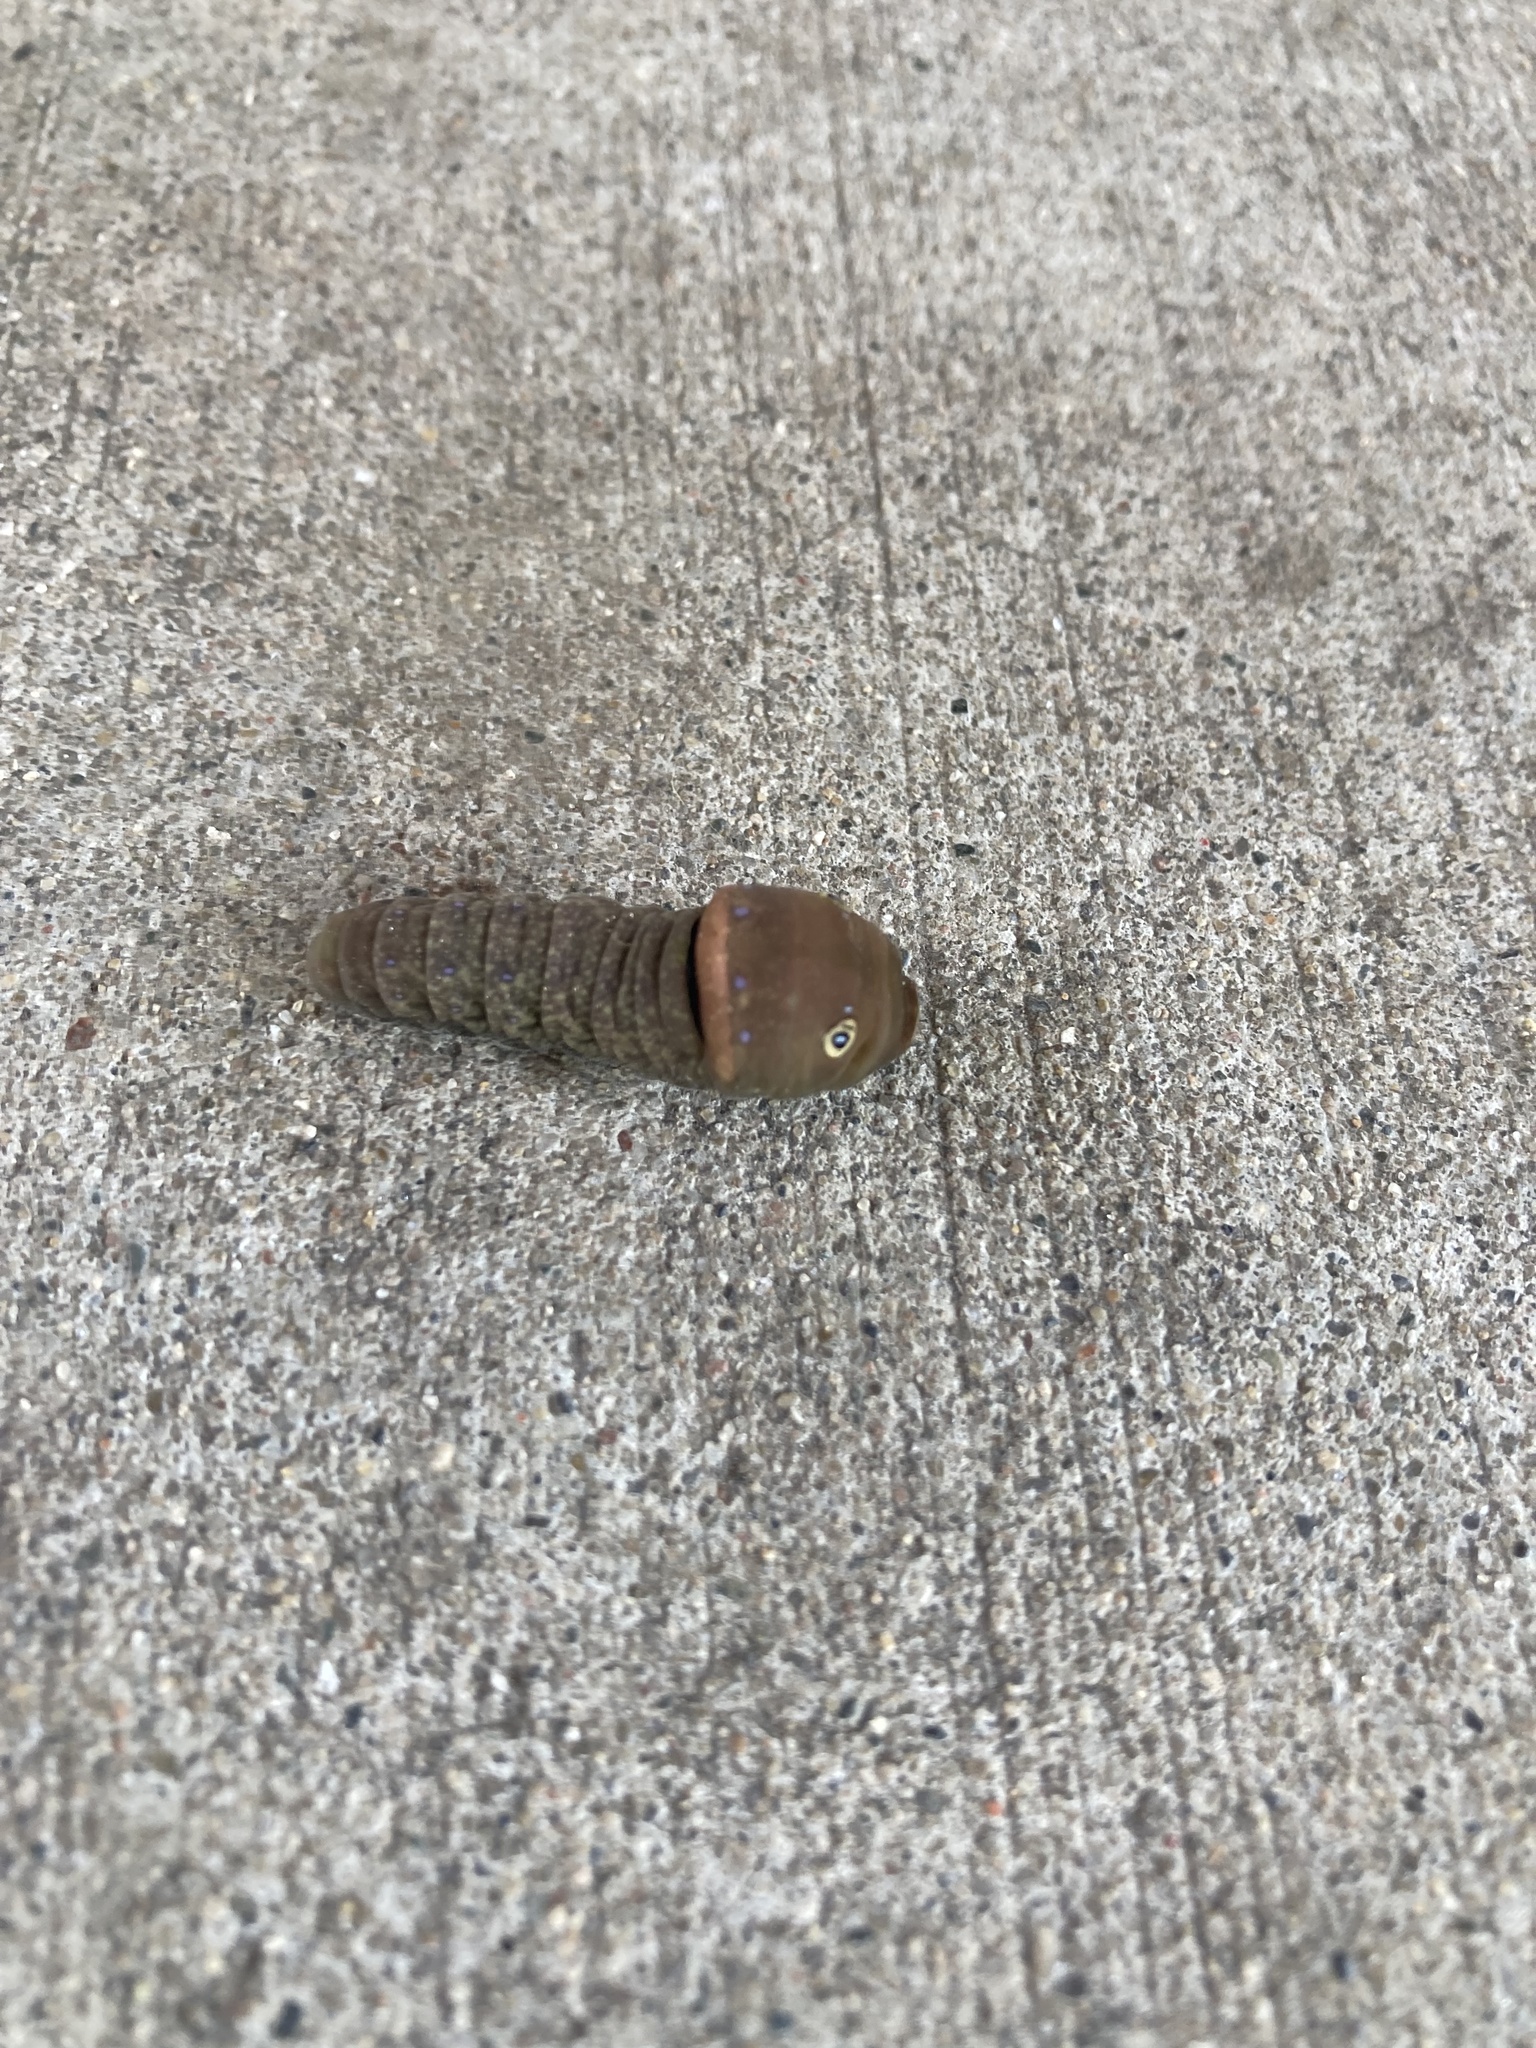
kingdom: Animalia
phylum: Arthropoda
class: Insecta
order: Lepidoptera
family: Papilionidae
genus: Papilio
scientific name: Papilio glaucus
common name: Tiger swallowtail
